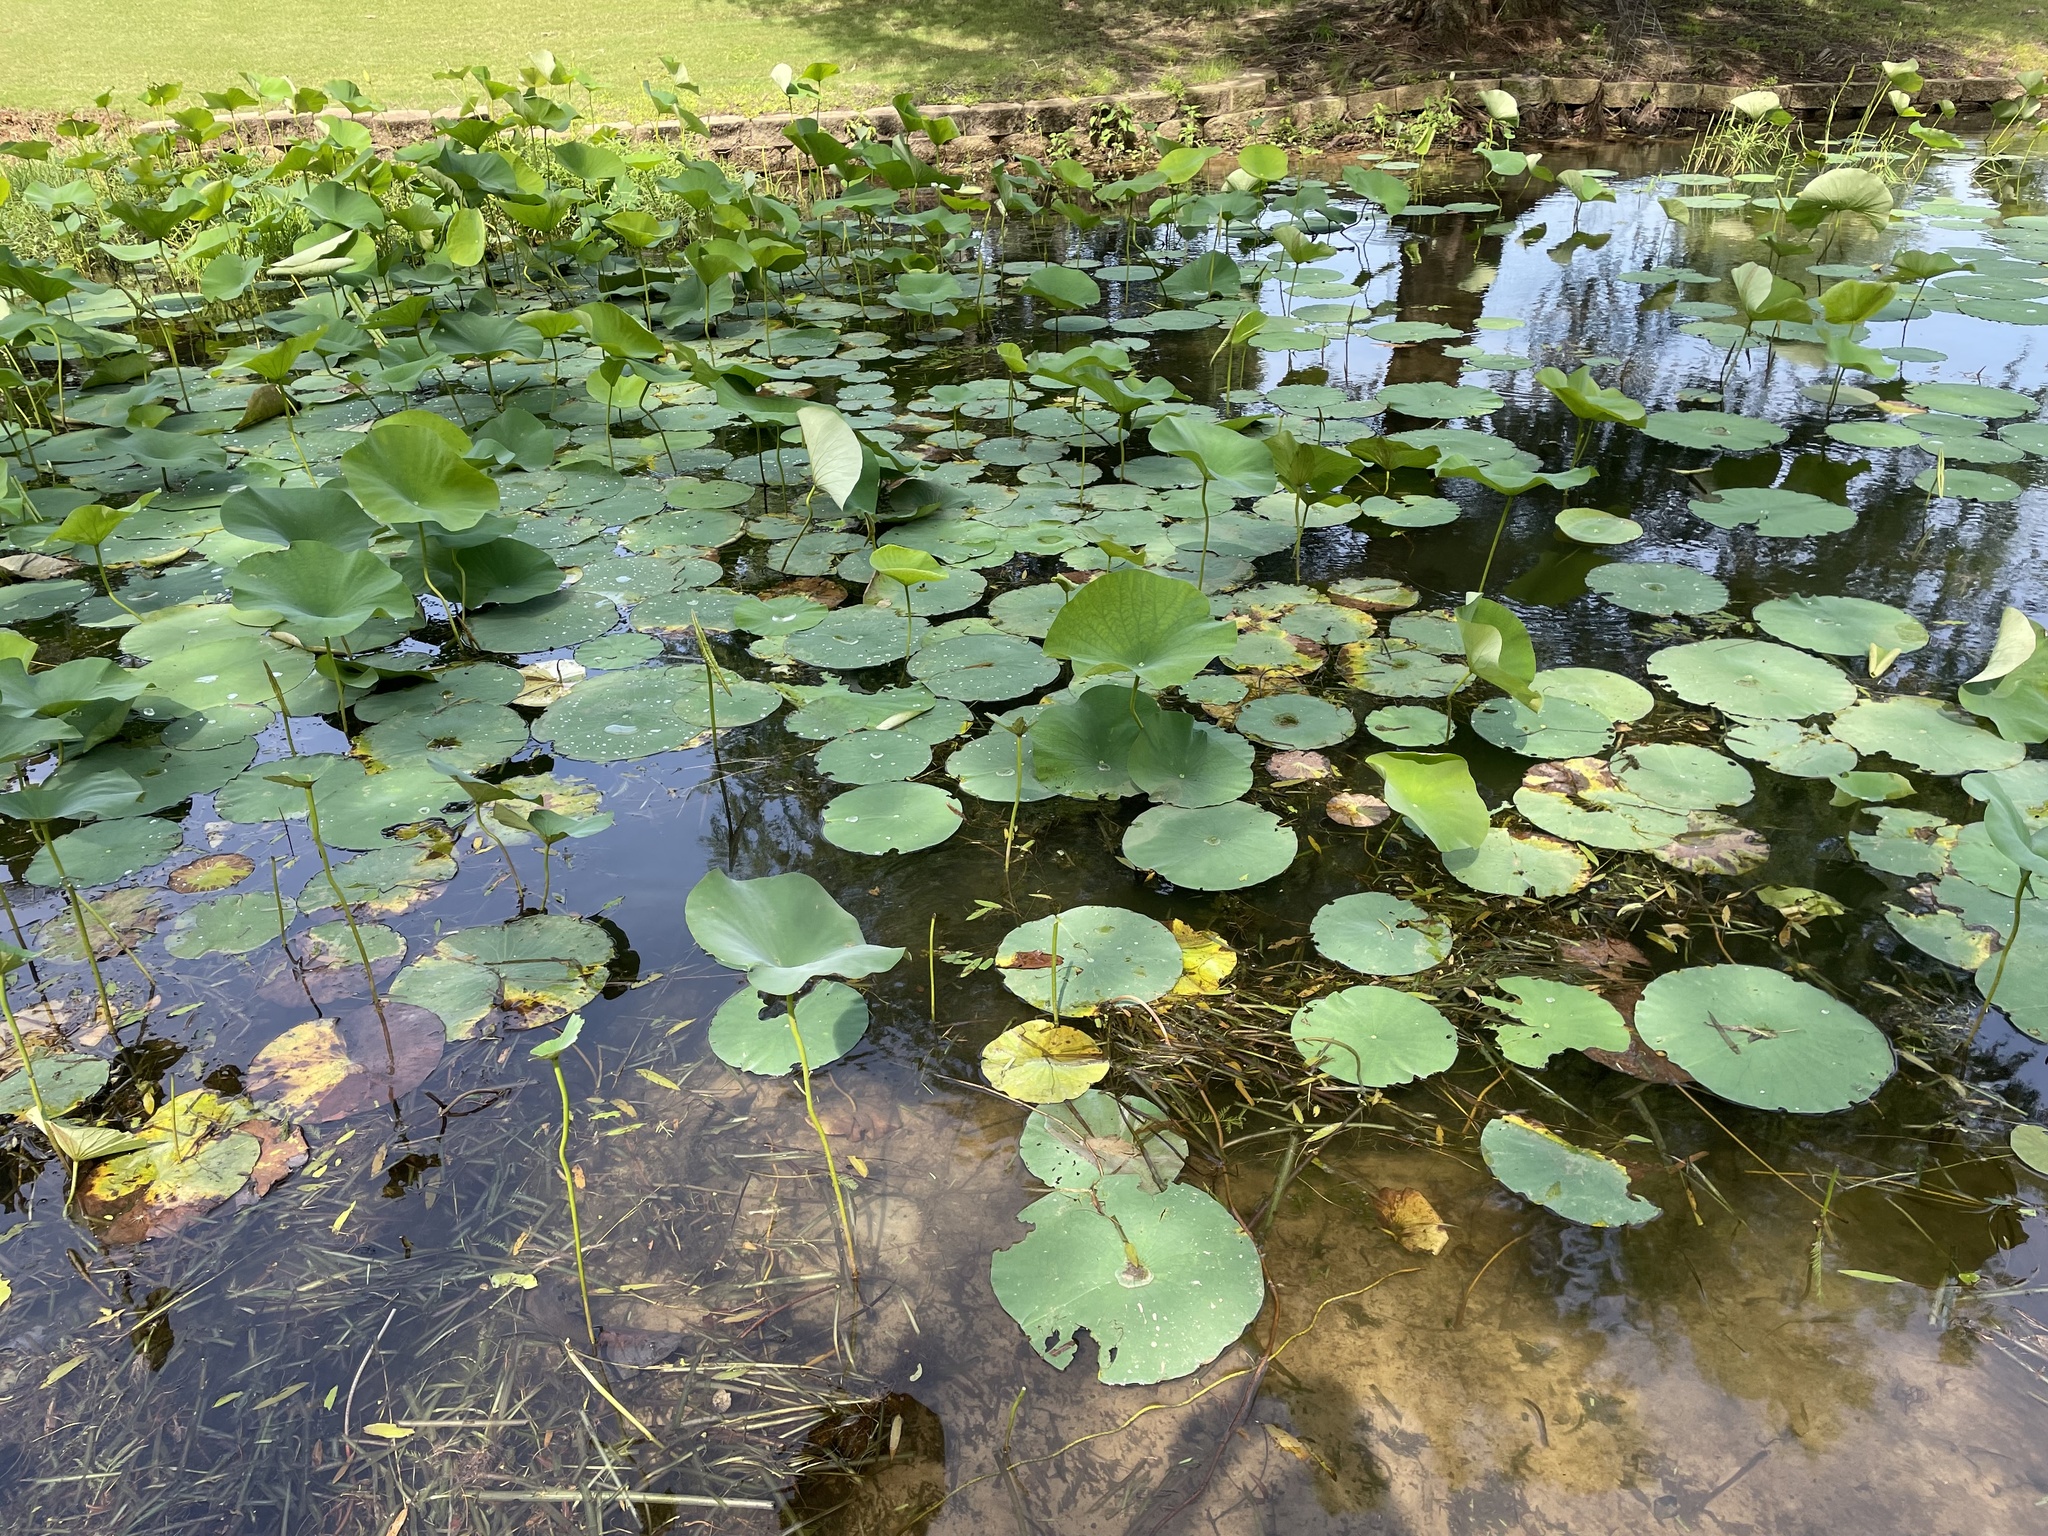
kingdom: Plantae
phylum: Tracheophyta
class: Magnoliopsida
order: Proteales
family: Nelumbonaceae
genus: Nelumbo
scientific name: Nelumbo lutea
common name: American lotus
